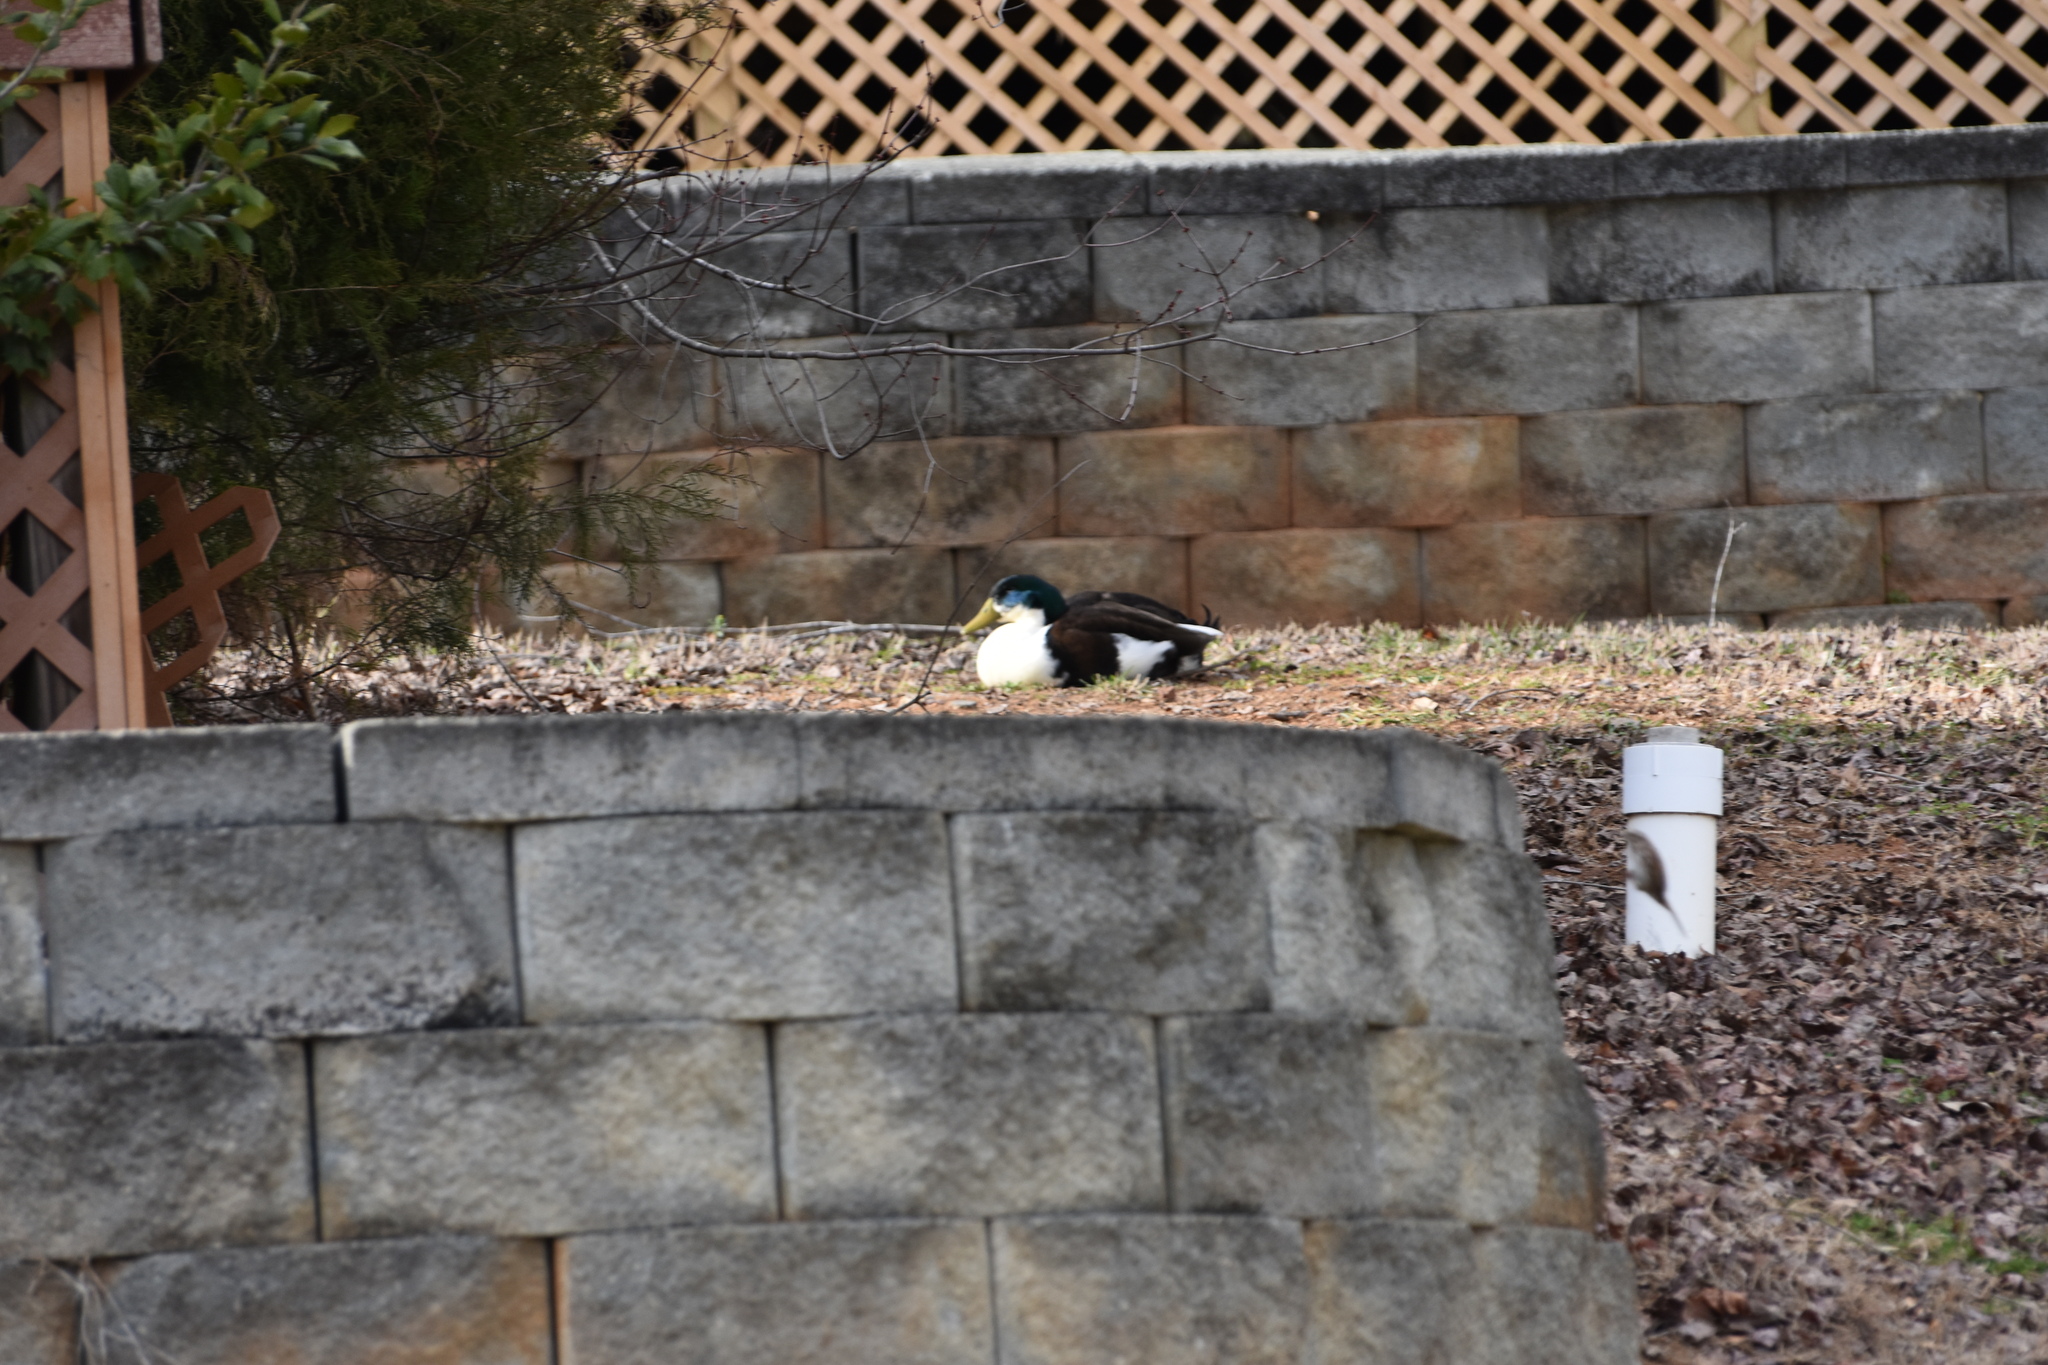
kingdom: Animalia
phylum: Chordata
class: Aves
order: Anseriformes
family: Anatidae
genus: Anas
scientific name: Anas platyrhynchos
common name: Mallard
